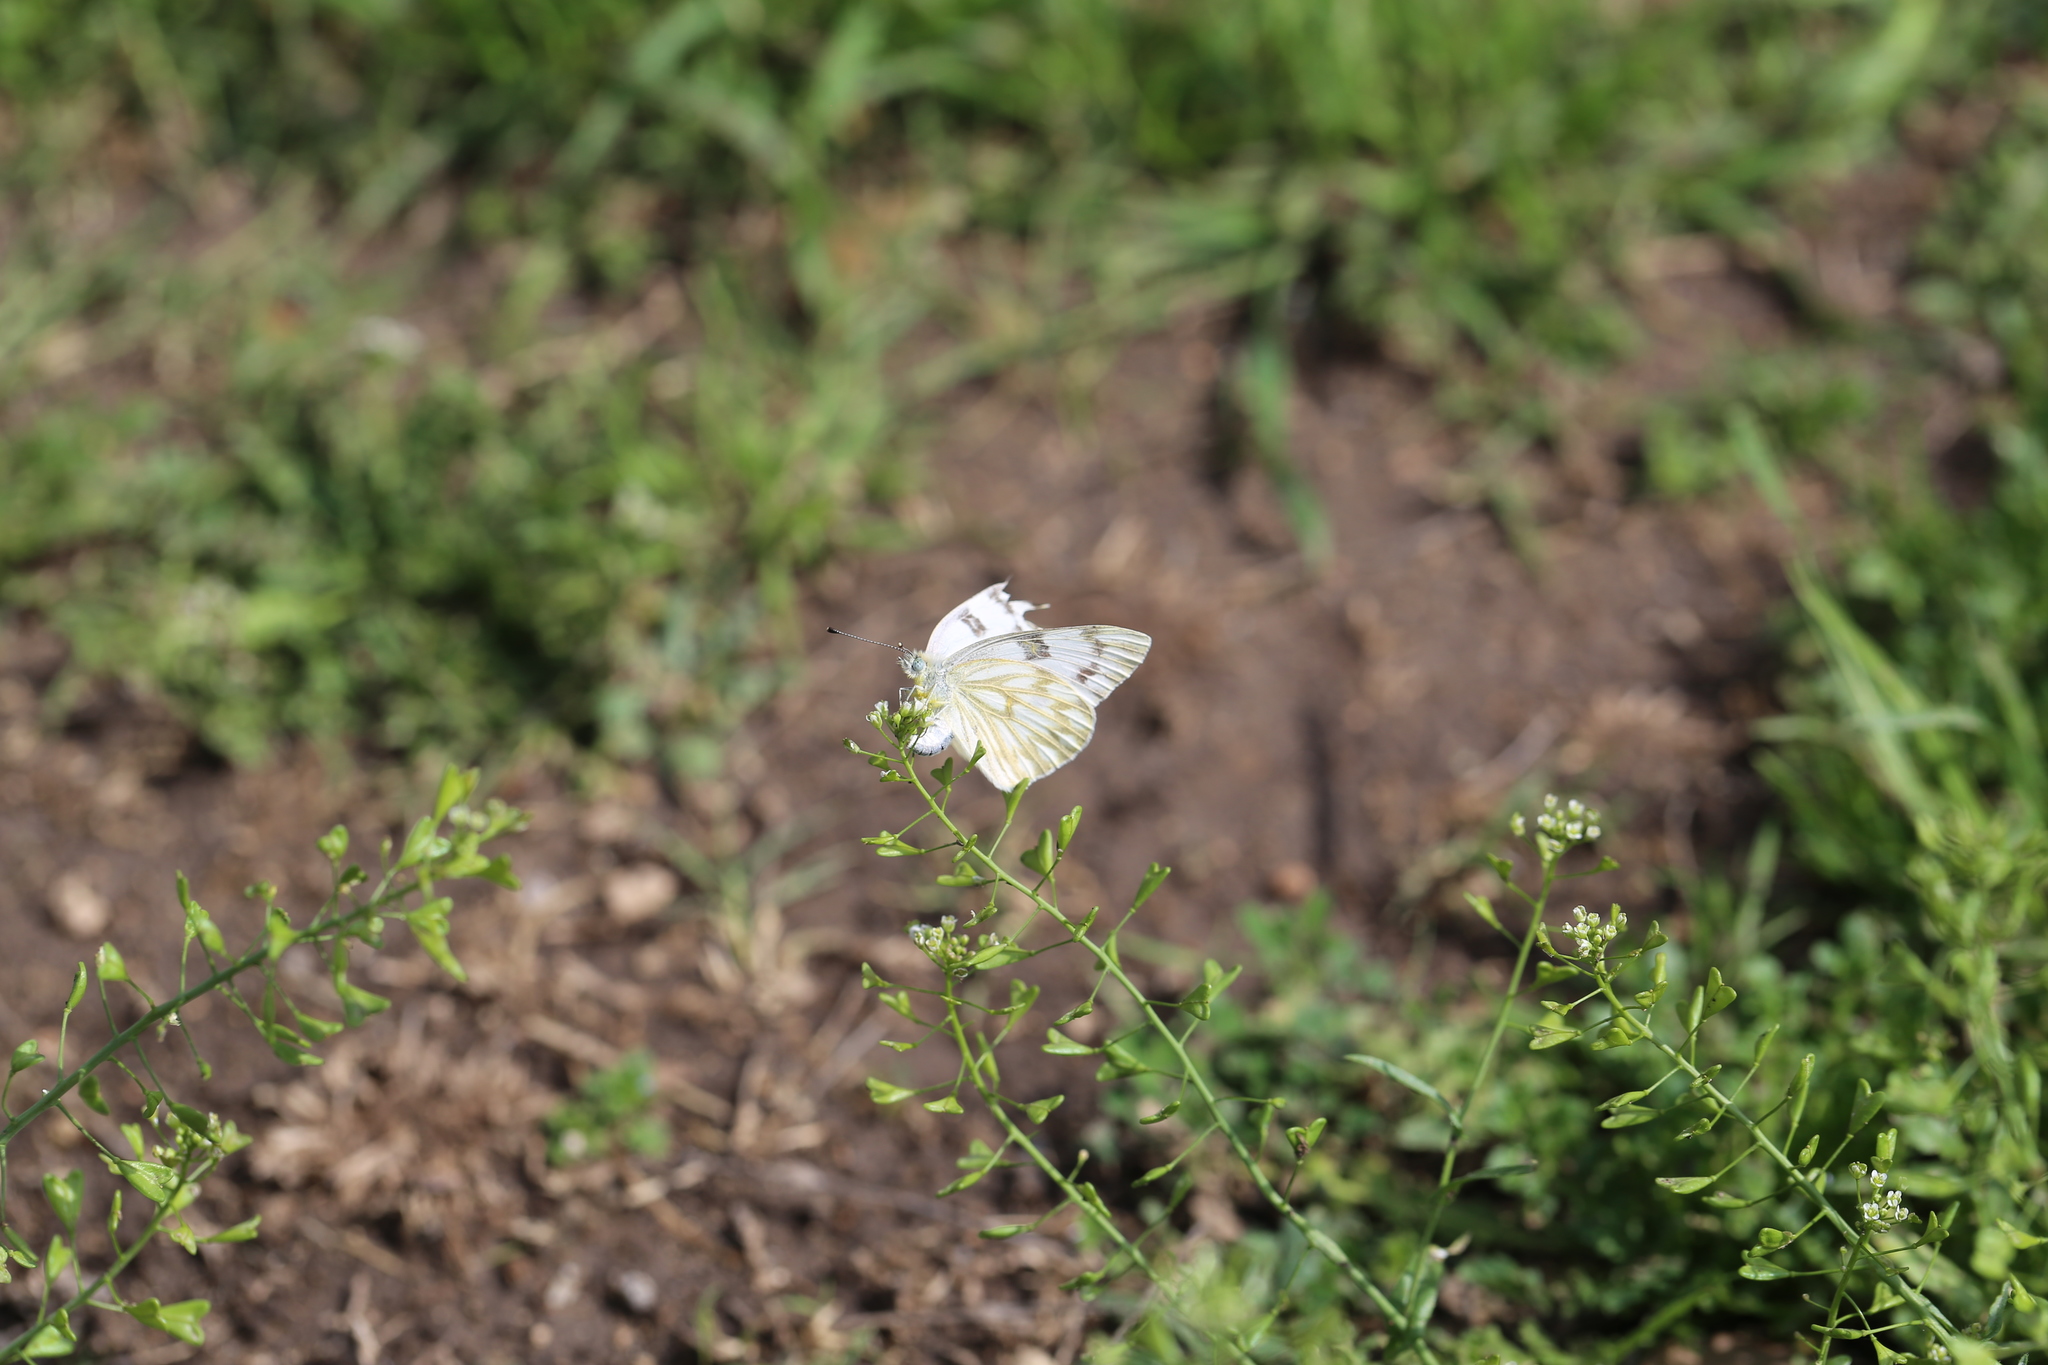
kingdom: Animalia
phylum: Arthropoda
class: Insecta
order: Lepidoptera
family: Pieridae
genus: Pontia
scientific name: Pontia protodice
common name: Checkered white
